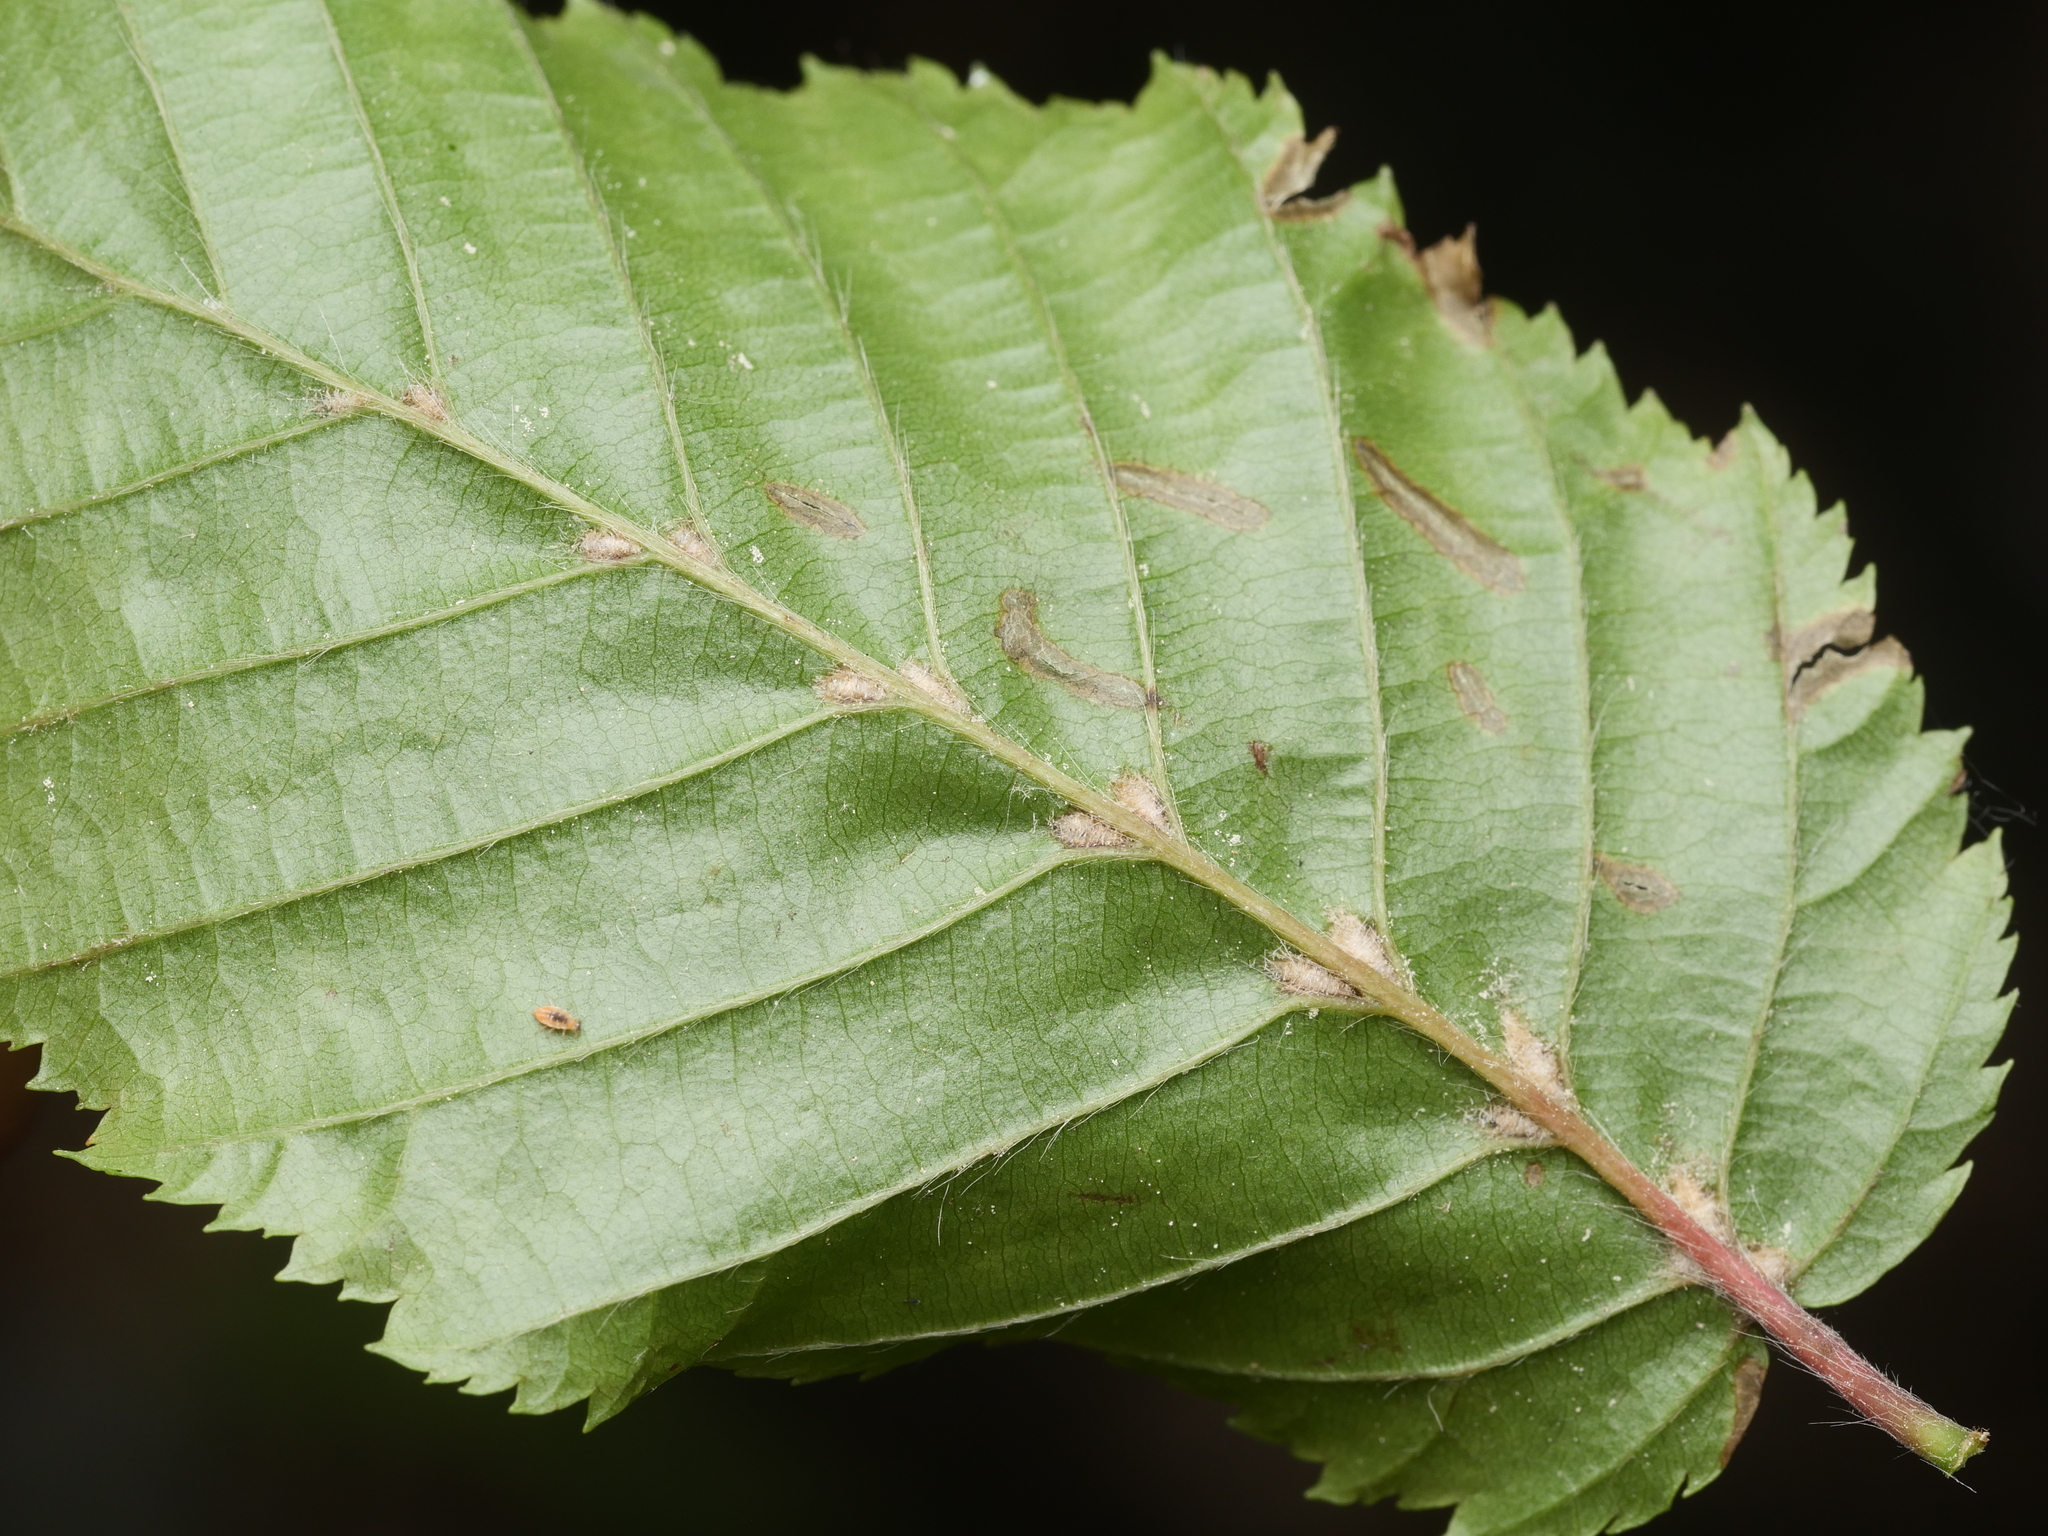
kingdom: Animalia
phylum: Arthropoda
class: Arachnida
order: Trombidiformes
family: Eriophyidae
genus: Aceria
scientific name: Aceria tenellus
